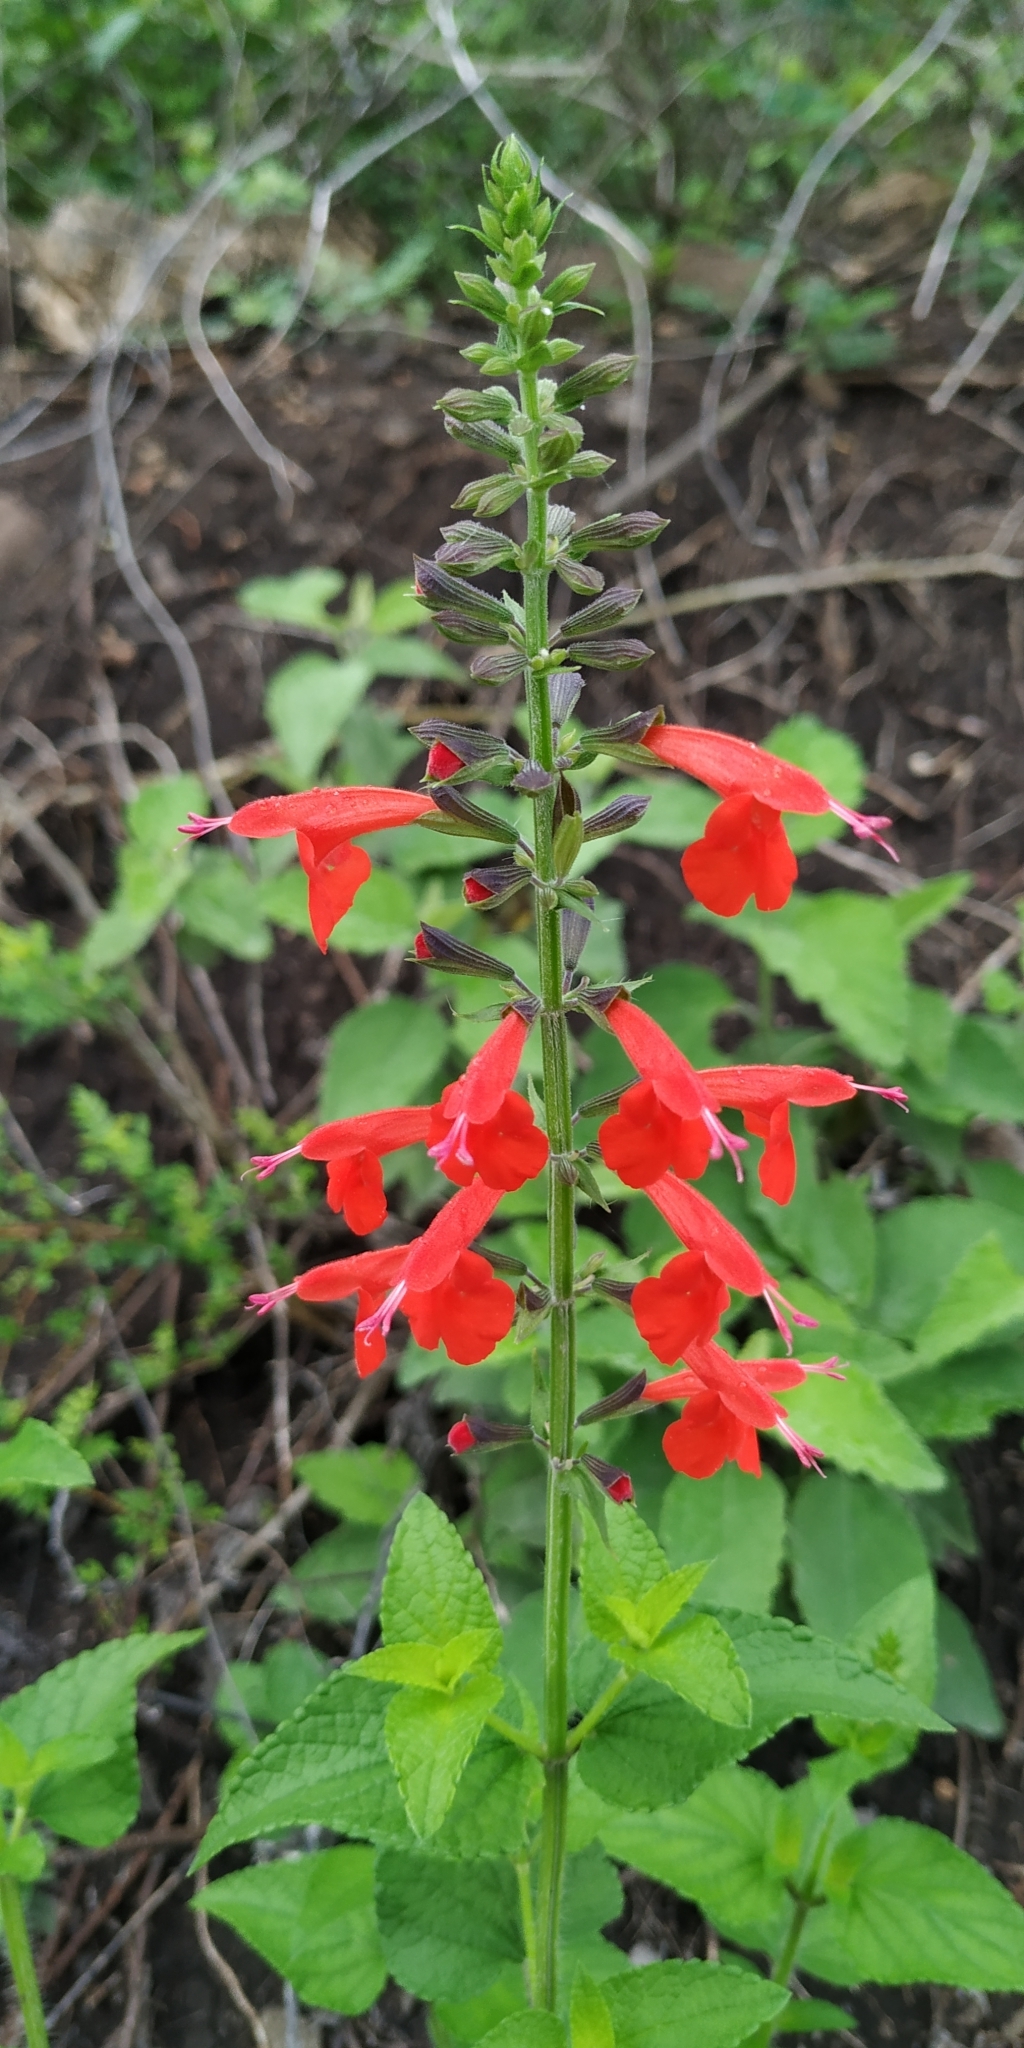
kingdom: Plantae
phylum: Tracheophyta
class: Magnoliopsida
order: Lamiales
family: Lamiaceae
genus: Salvia
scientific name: Salvia coccinea
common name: Blood sage
